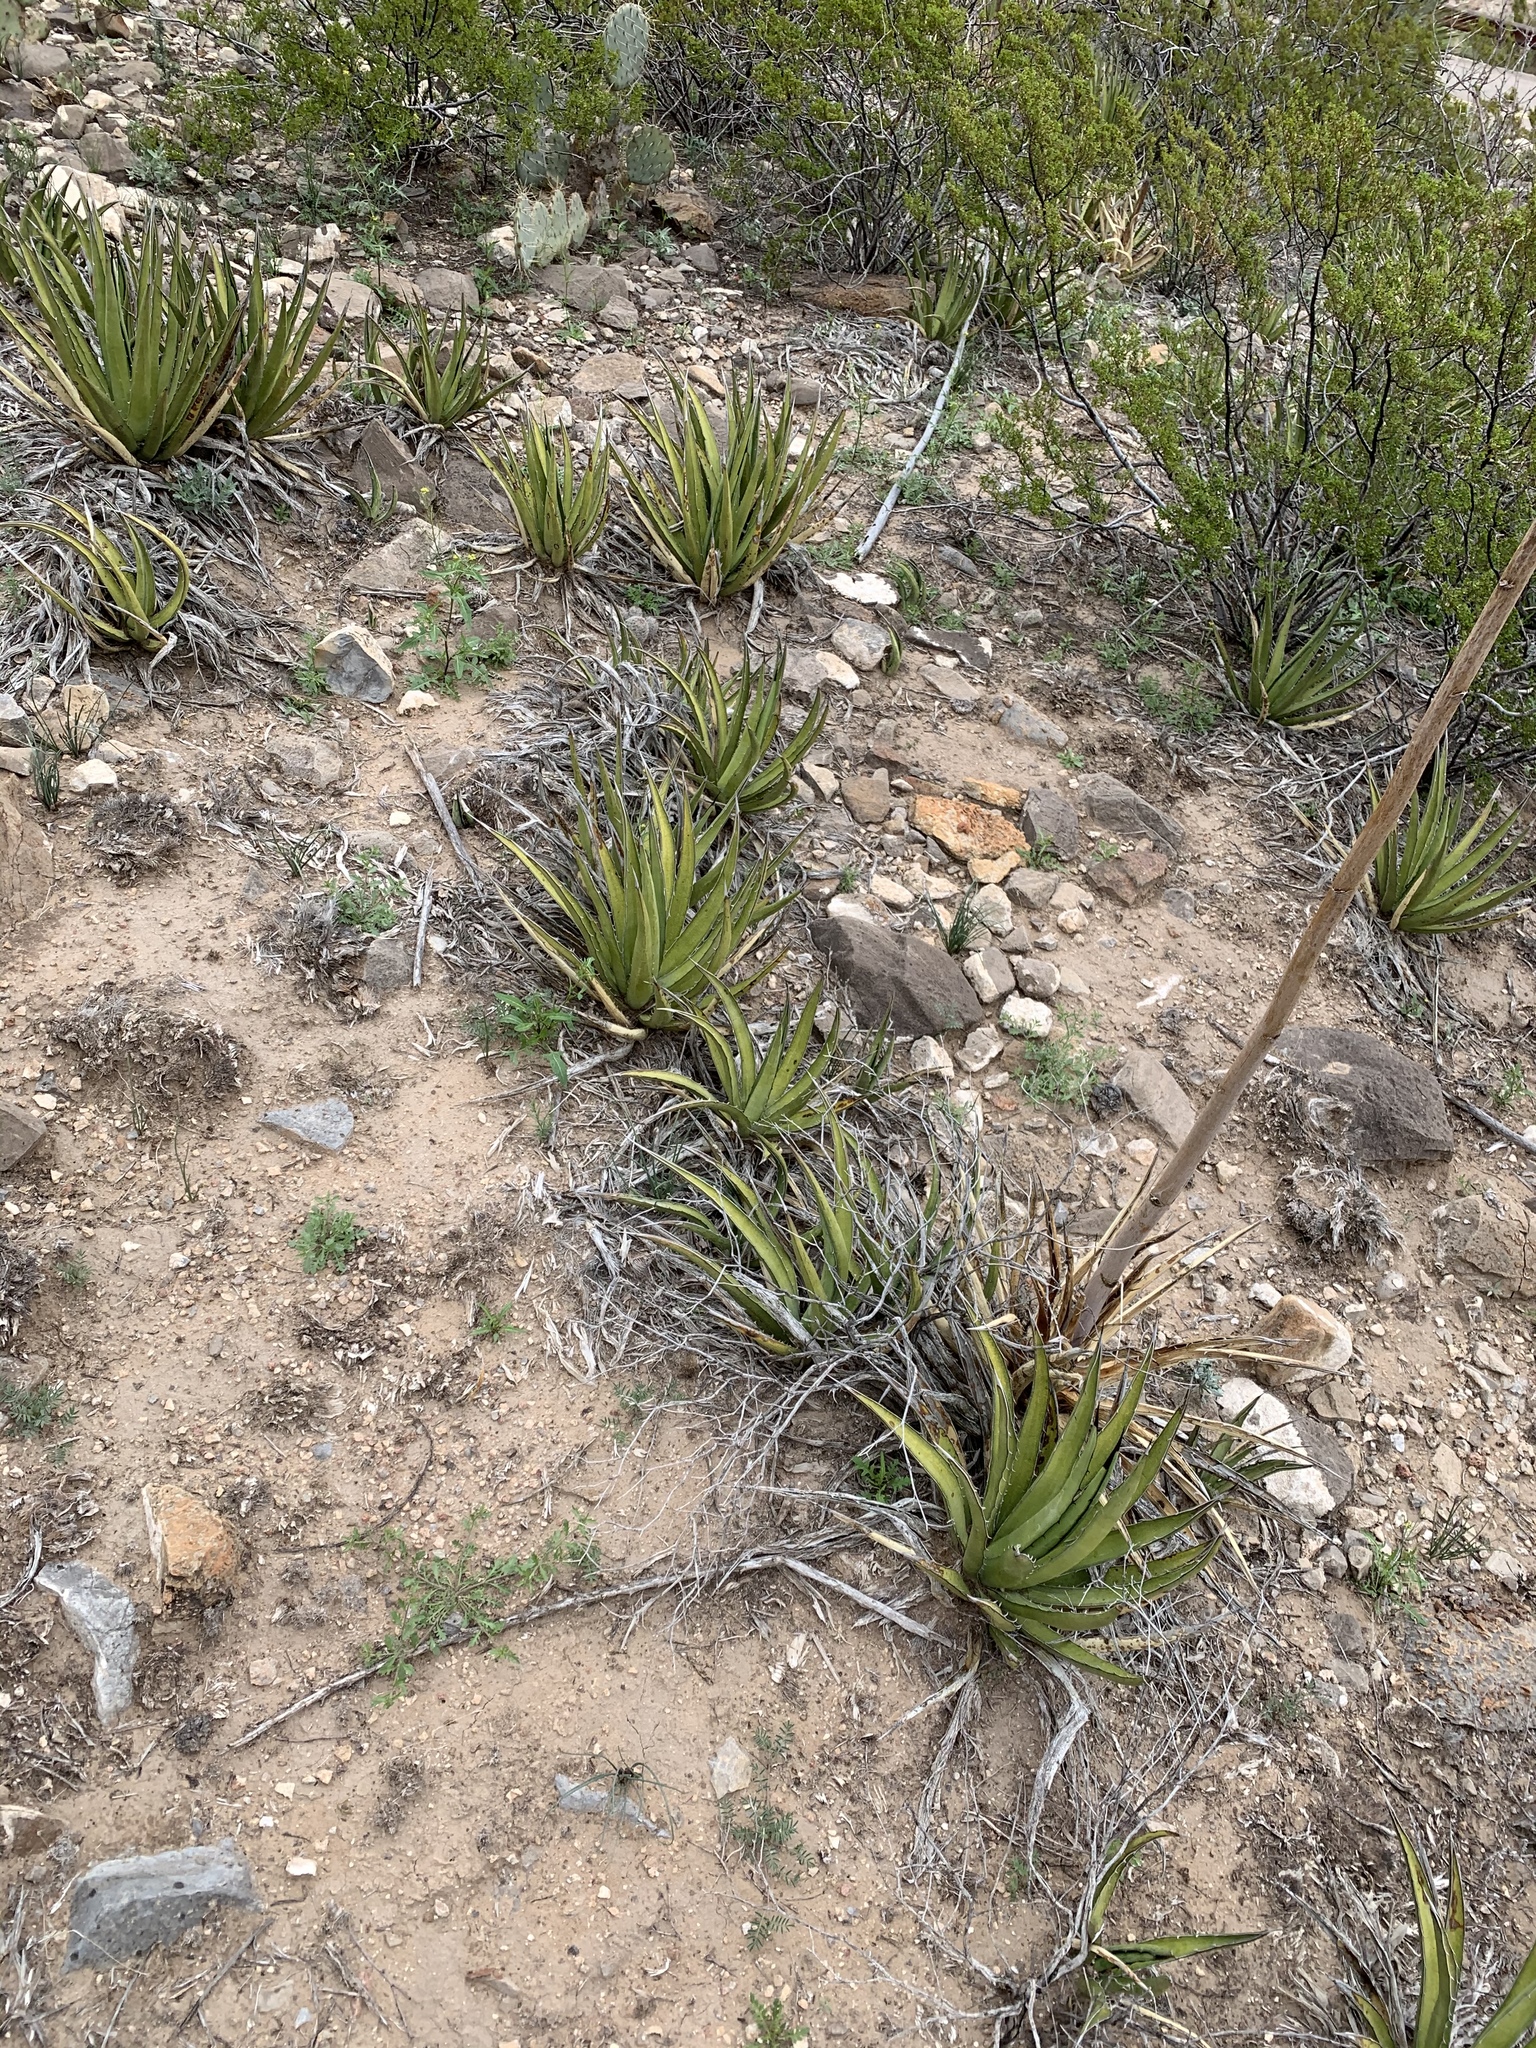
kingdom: Plantae
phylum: Tracheophyta
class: Liliopsida
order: Asparagales
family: Asparagaceae
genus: Agave
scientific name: Agave lechuguilla
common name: Lecheguilla agave
